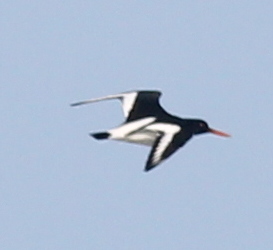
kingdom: Animalia
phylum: Chordata
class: Aves
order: Charadriiformes
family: Haematopodidae
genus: Haematopus
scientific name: Haematopus ostralegus
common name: Eurasian oystercatcher
